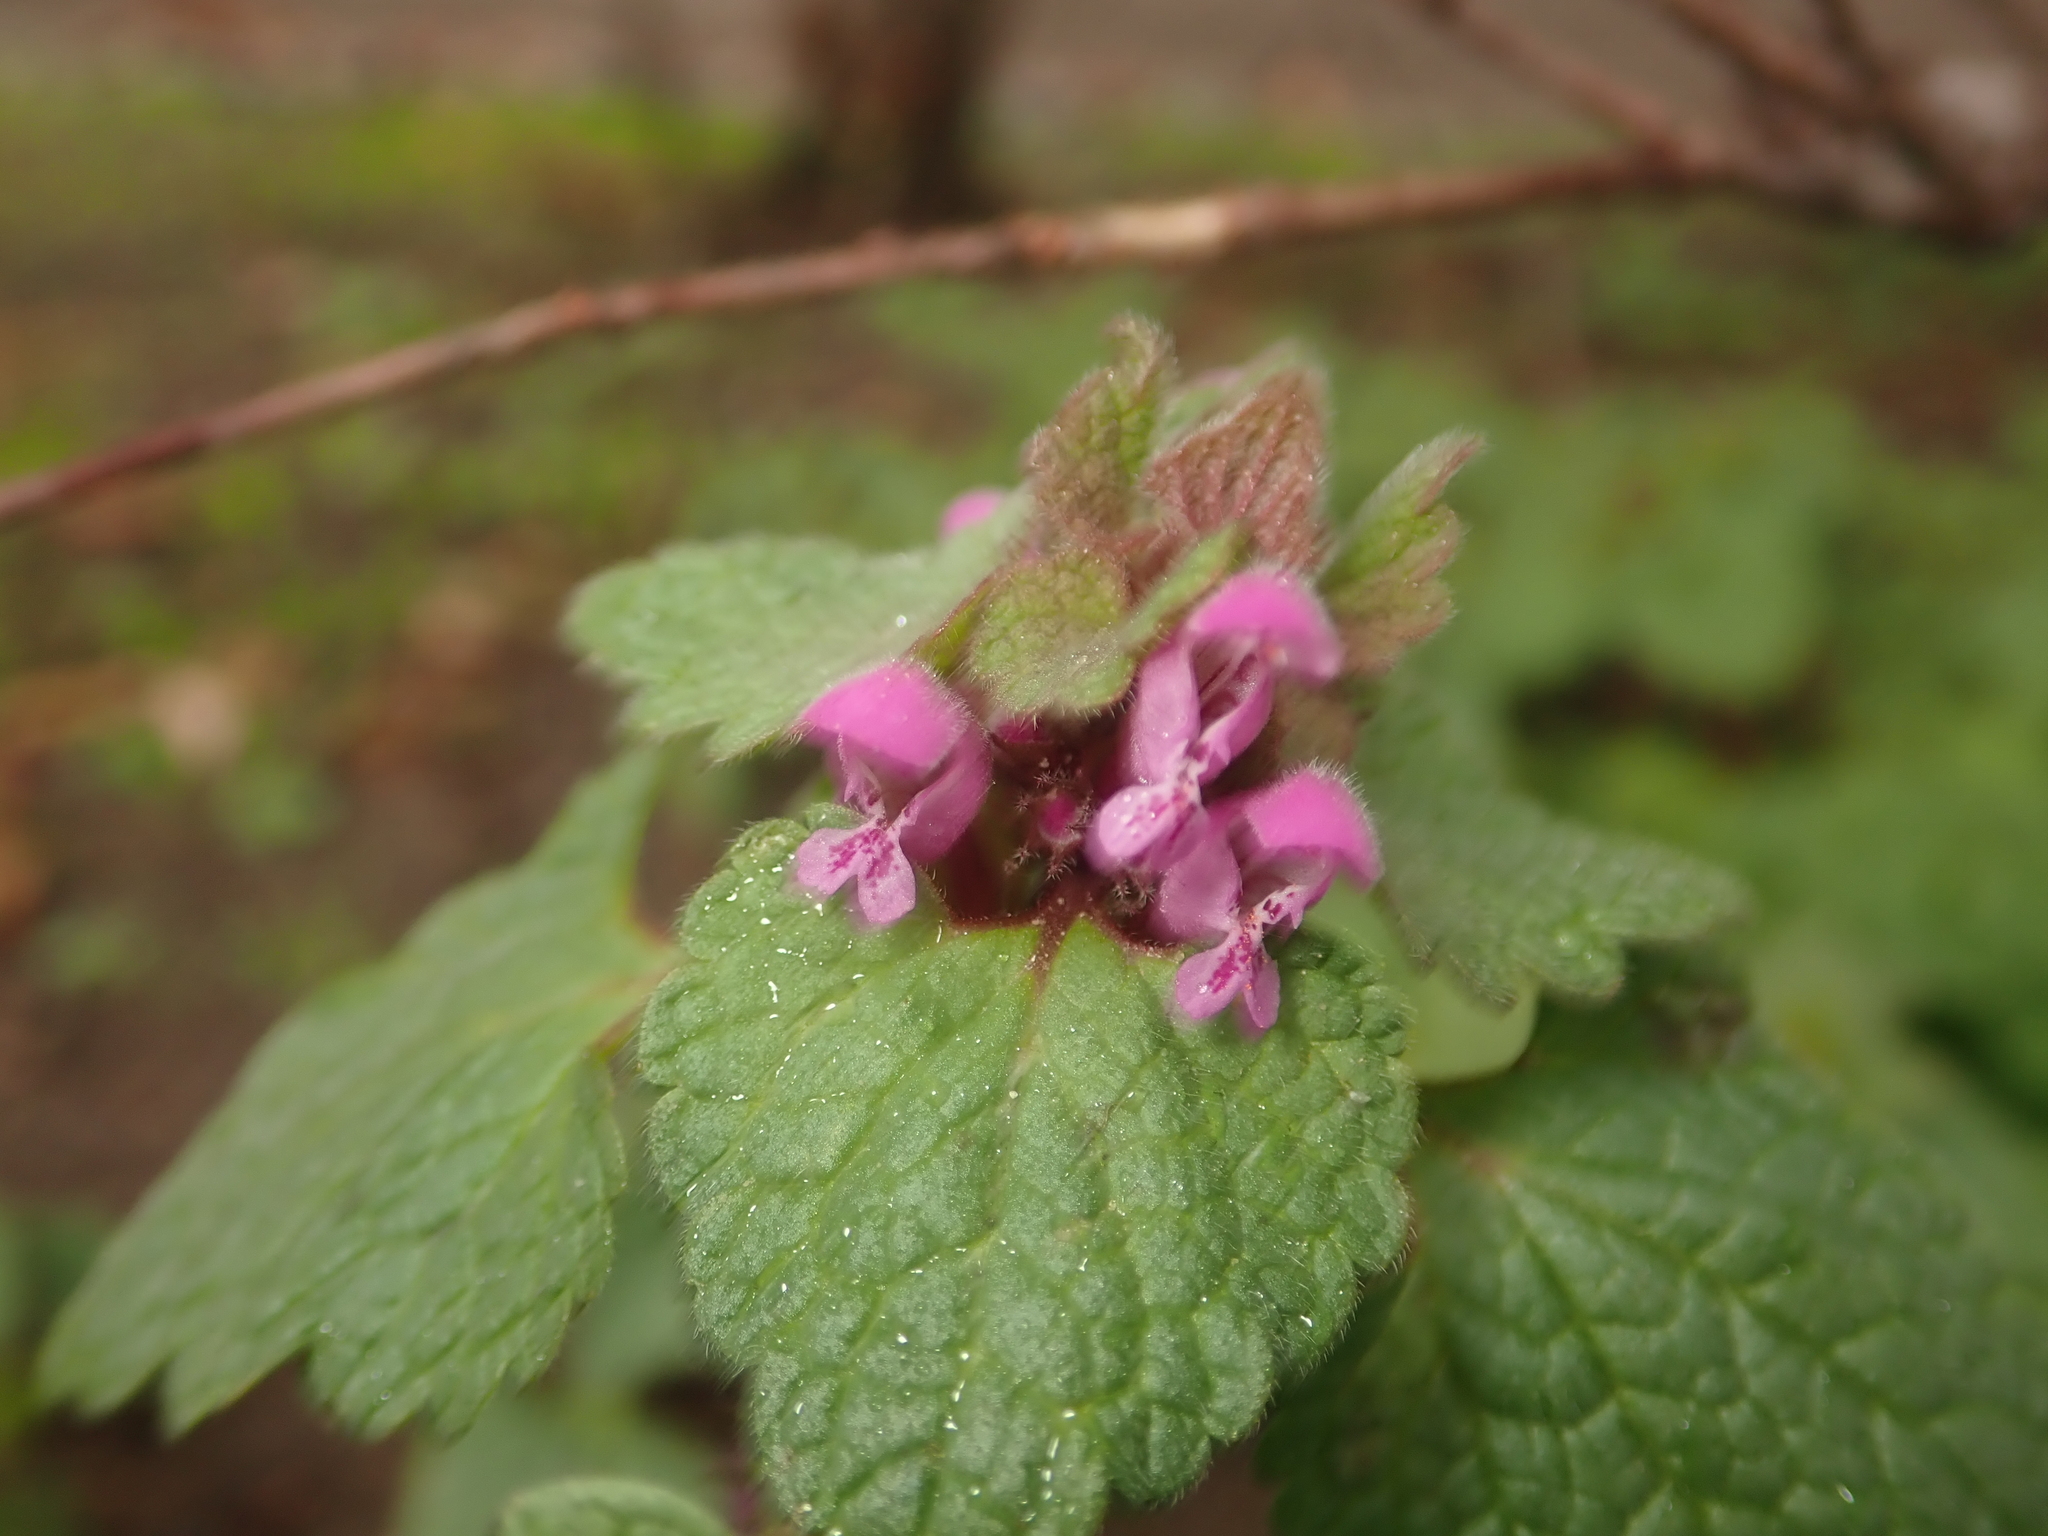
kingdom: Plantae
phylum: Tracheophyta
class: Magnoliopsida
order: Lamiales
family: Lamiaceae
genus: Lamium
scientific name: Lamium purpureum
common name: Red dead-nettle
